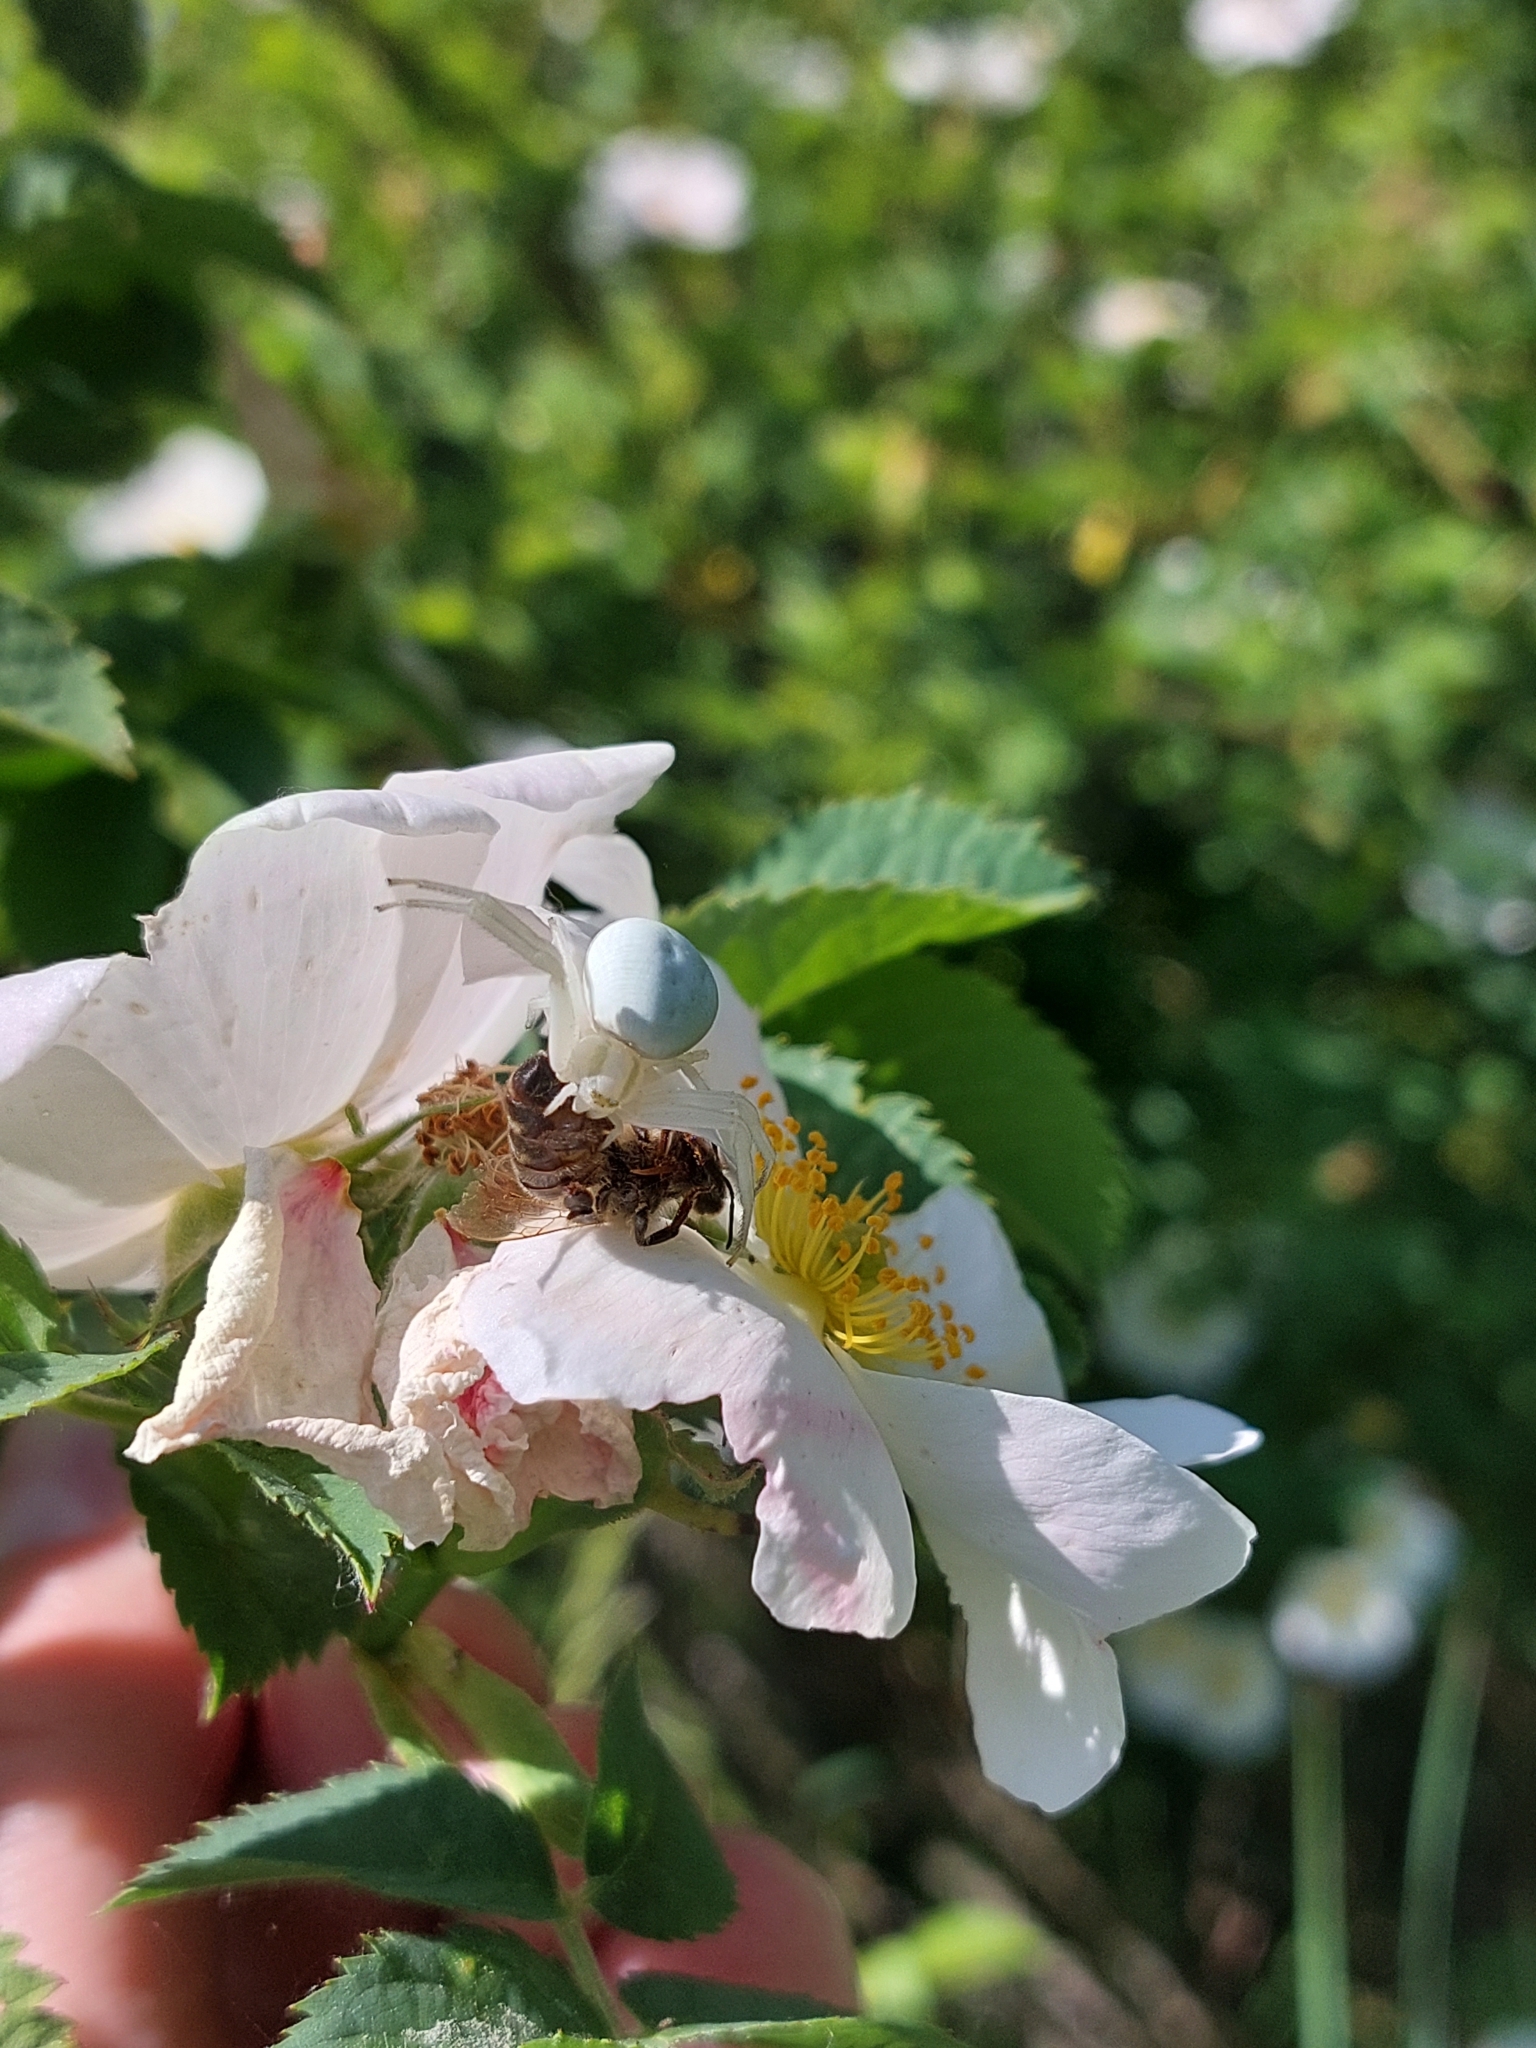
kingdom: Animalia
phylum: Arthropoda
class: Arachnida
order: Araneae
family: Thomisidae
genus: Misumena
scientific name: Misumena vatia
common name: Goldenrod crab spider
